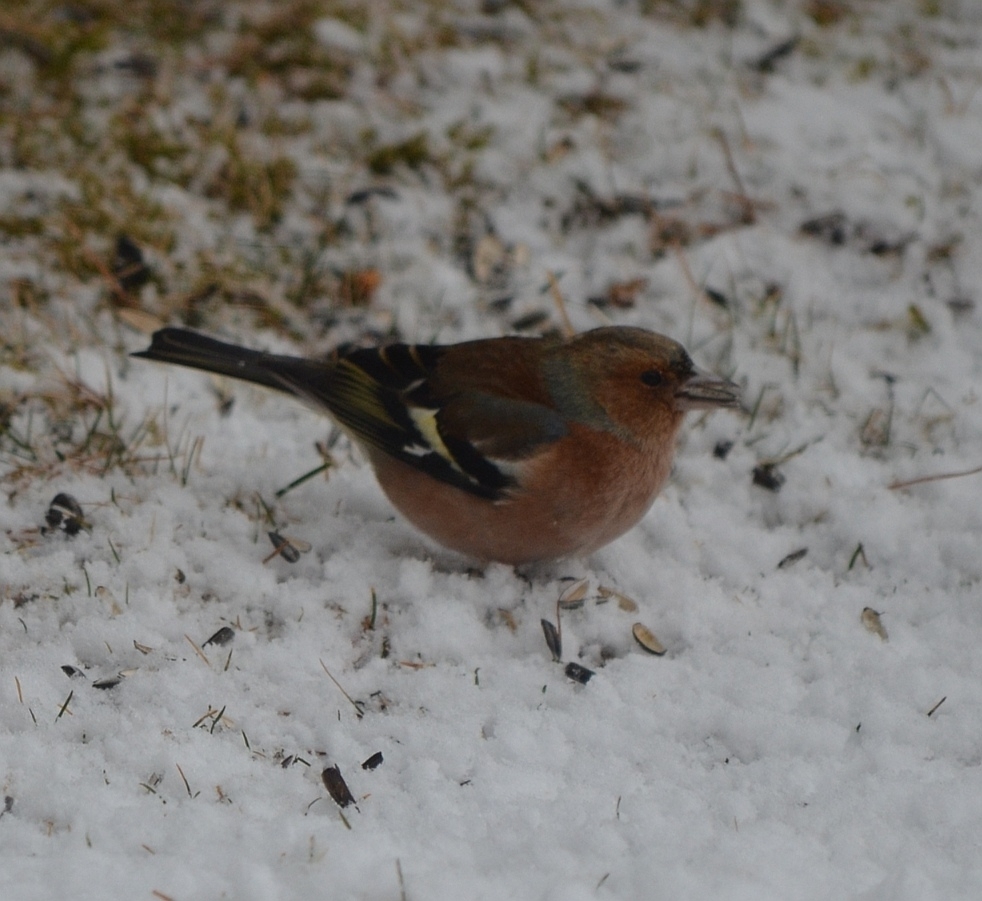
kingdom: Animalia
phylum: Chordata
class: Aves
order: Passeriformes
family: Fringillidae
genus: Fringilla
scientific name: Fringilla coelebs
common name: Common chaffinch
